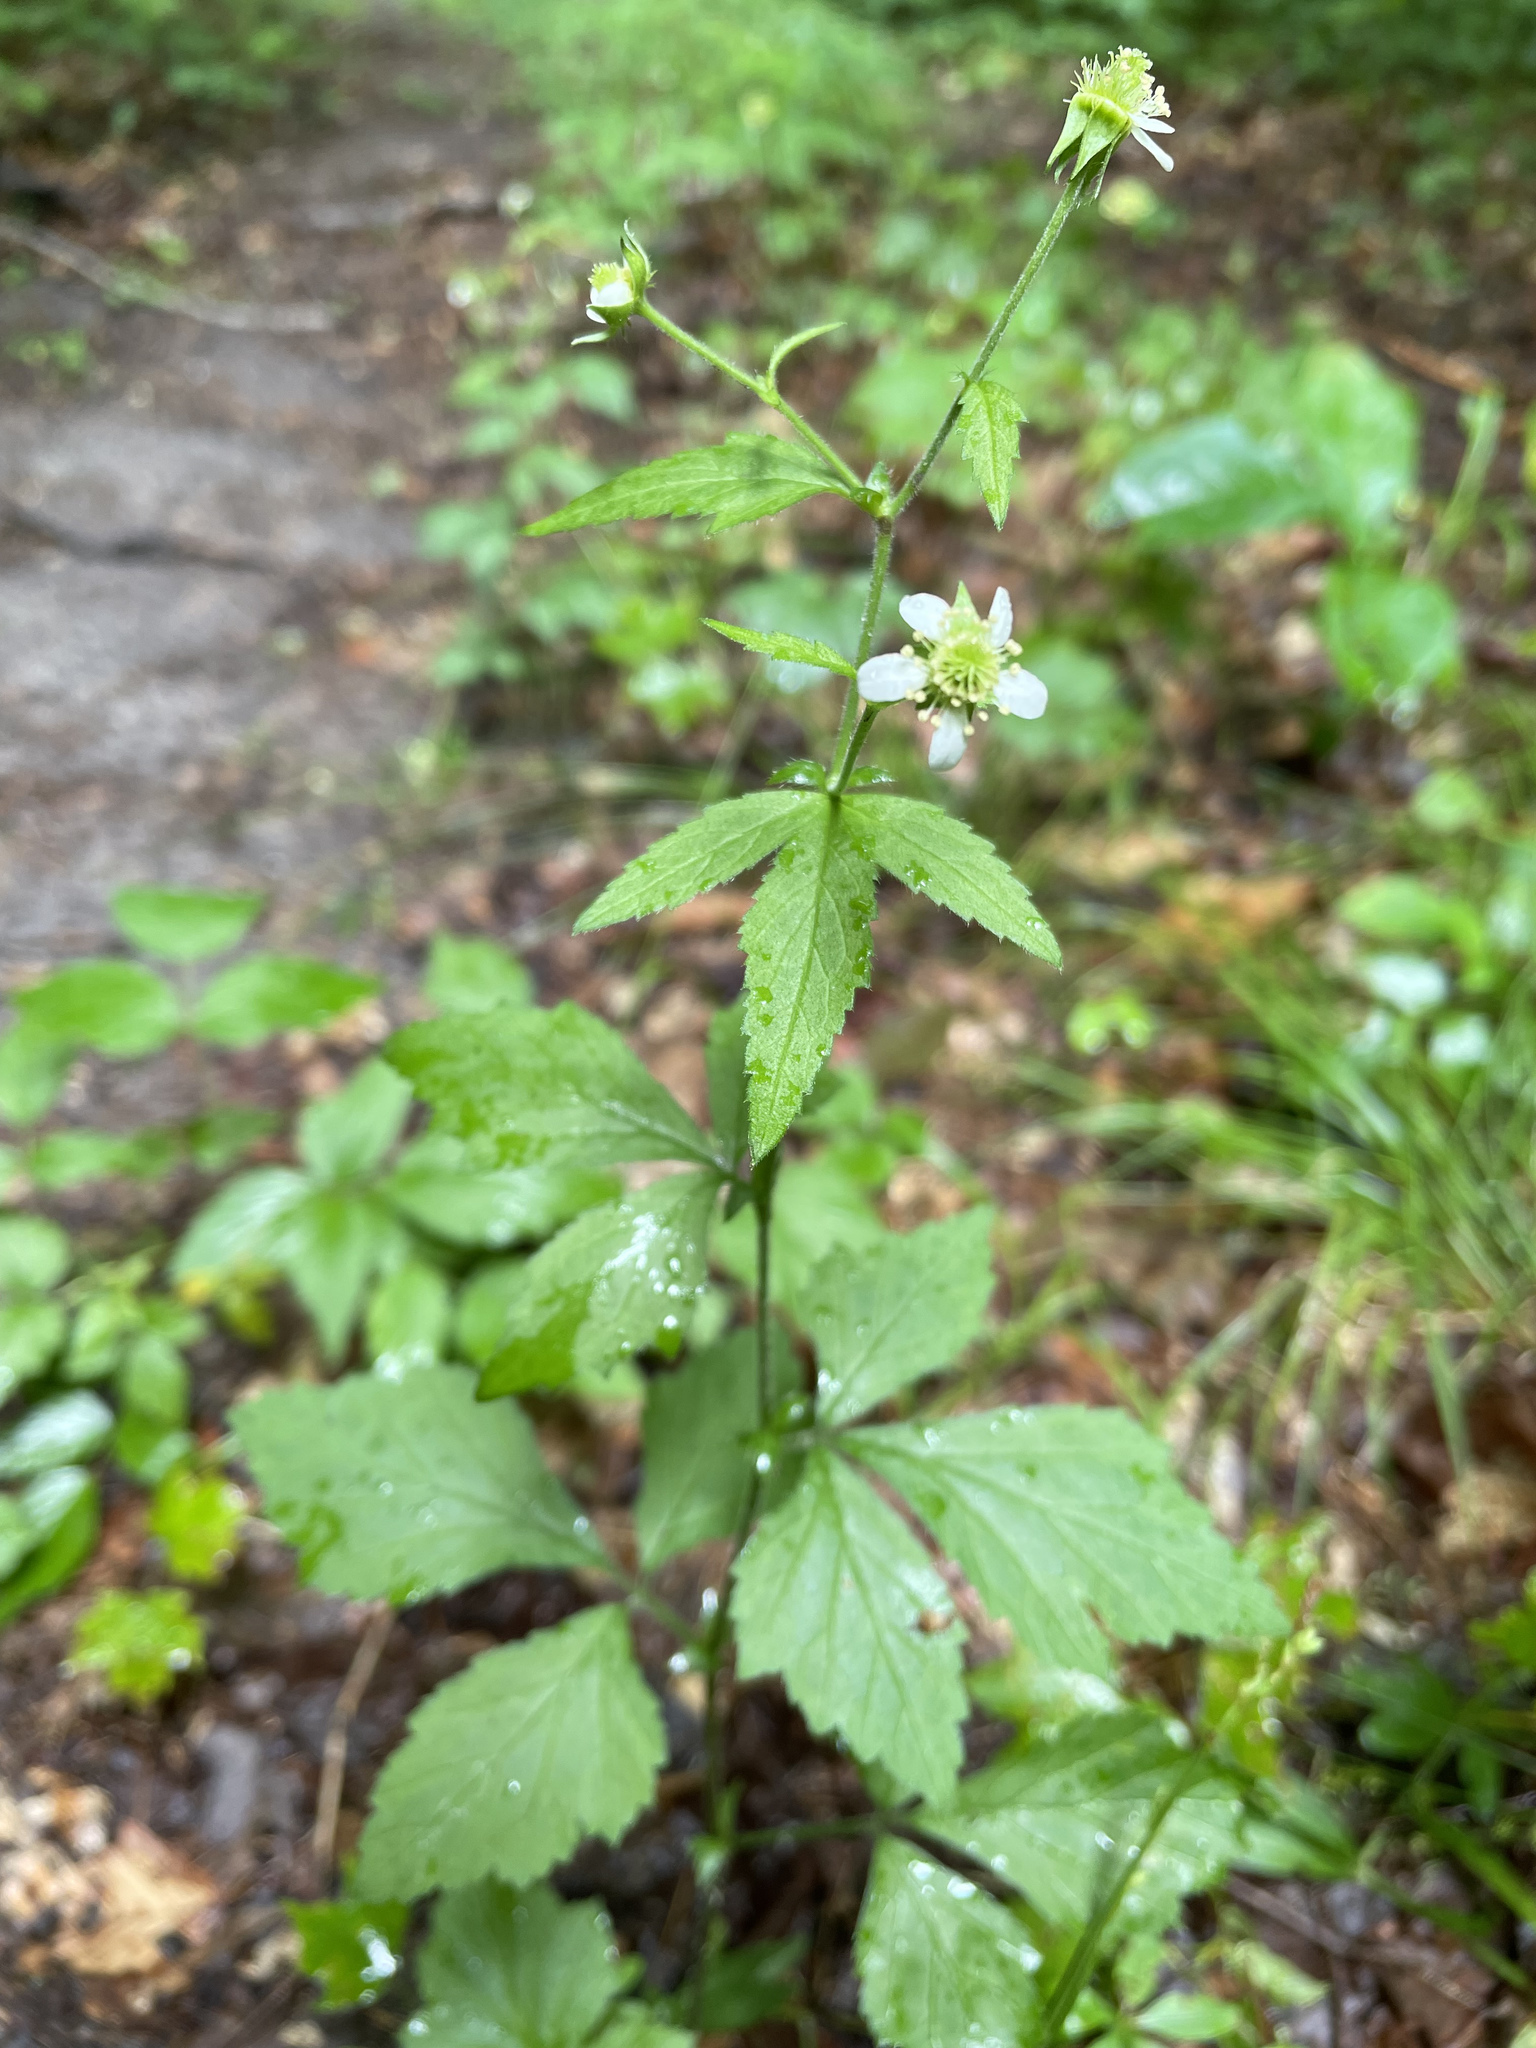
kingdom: Plantae
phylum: Tracheophyta
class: Magnoliopsida
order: Rosales
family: Rosaceae
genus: Geum
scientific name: Geum canadense
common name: White avens
